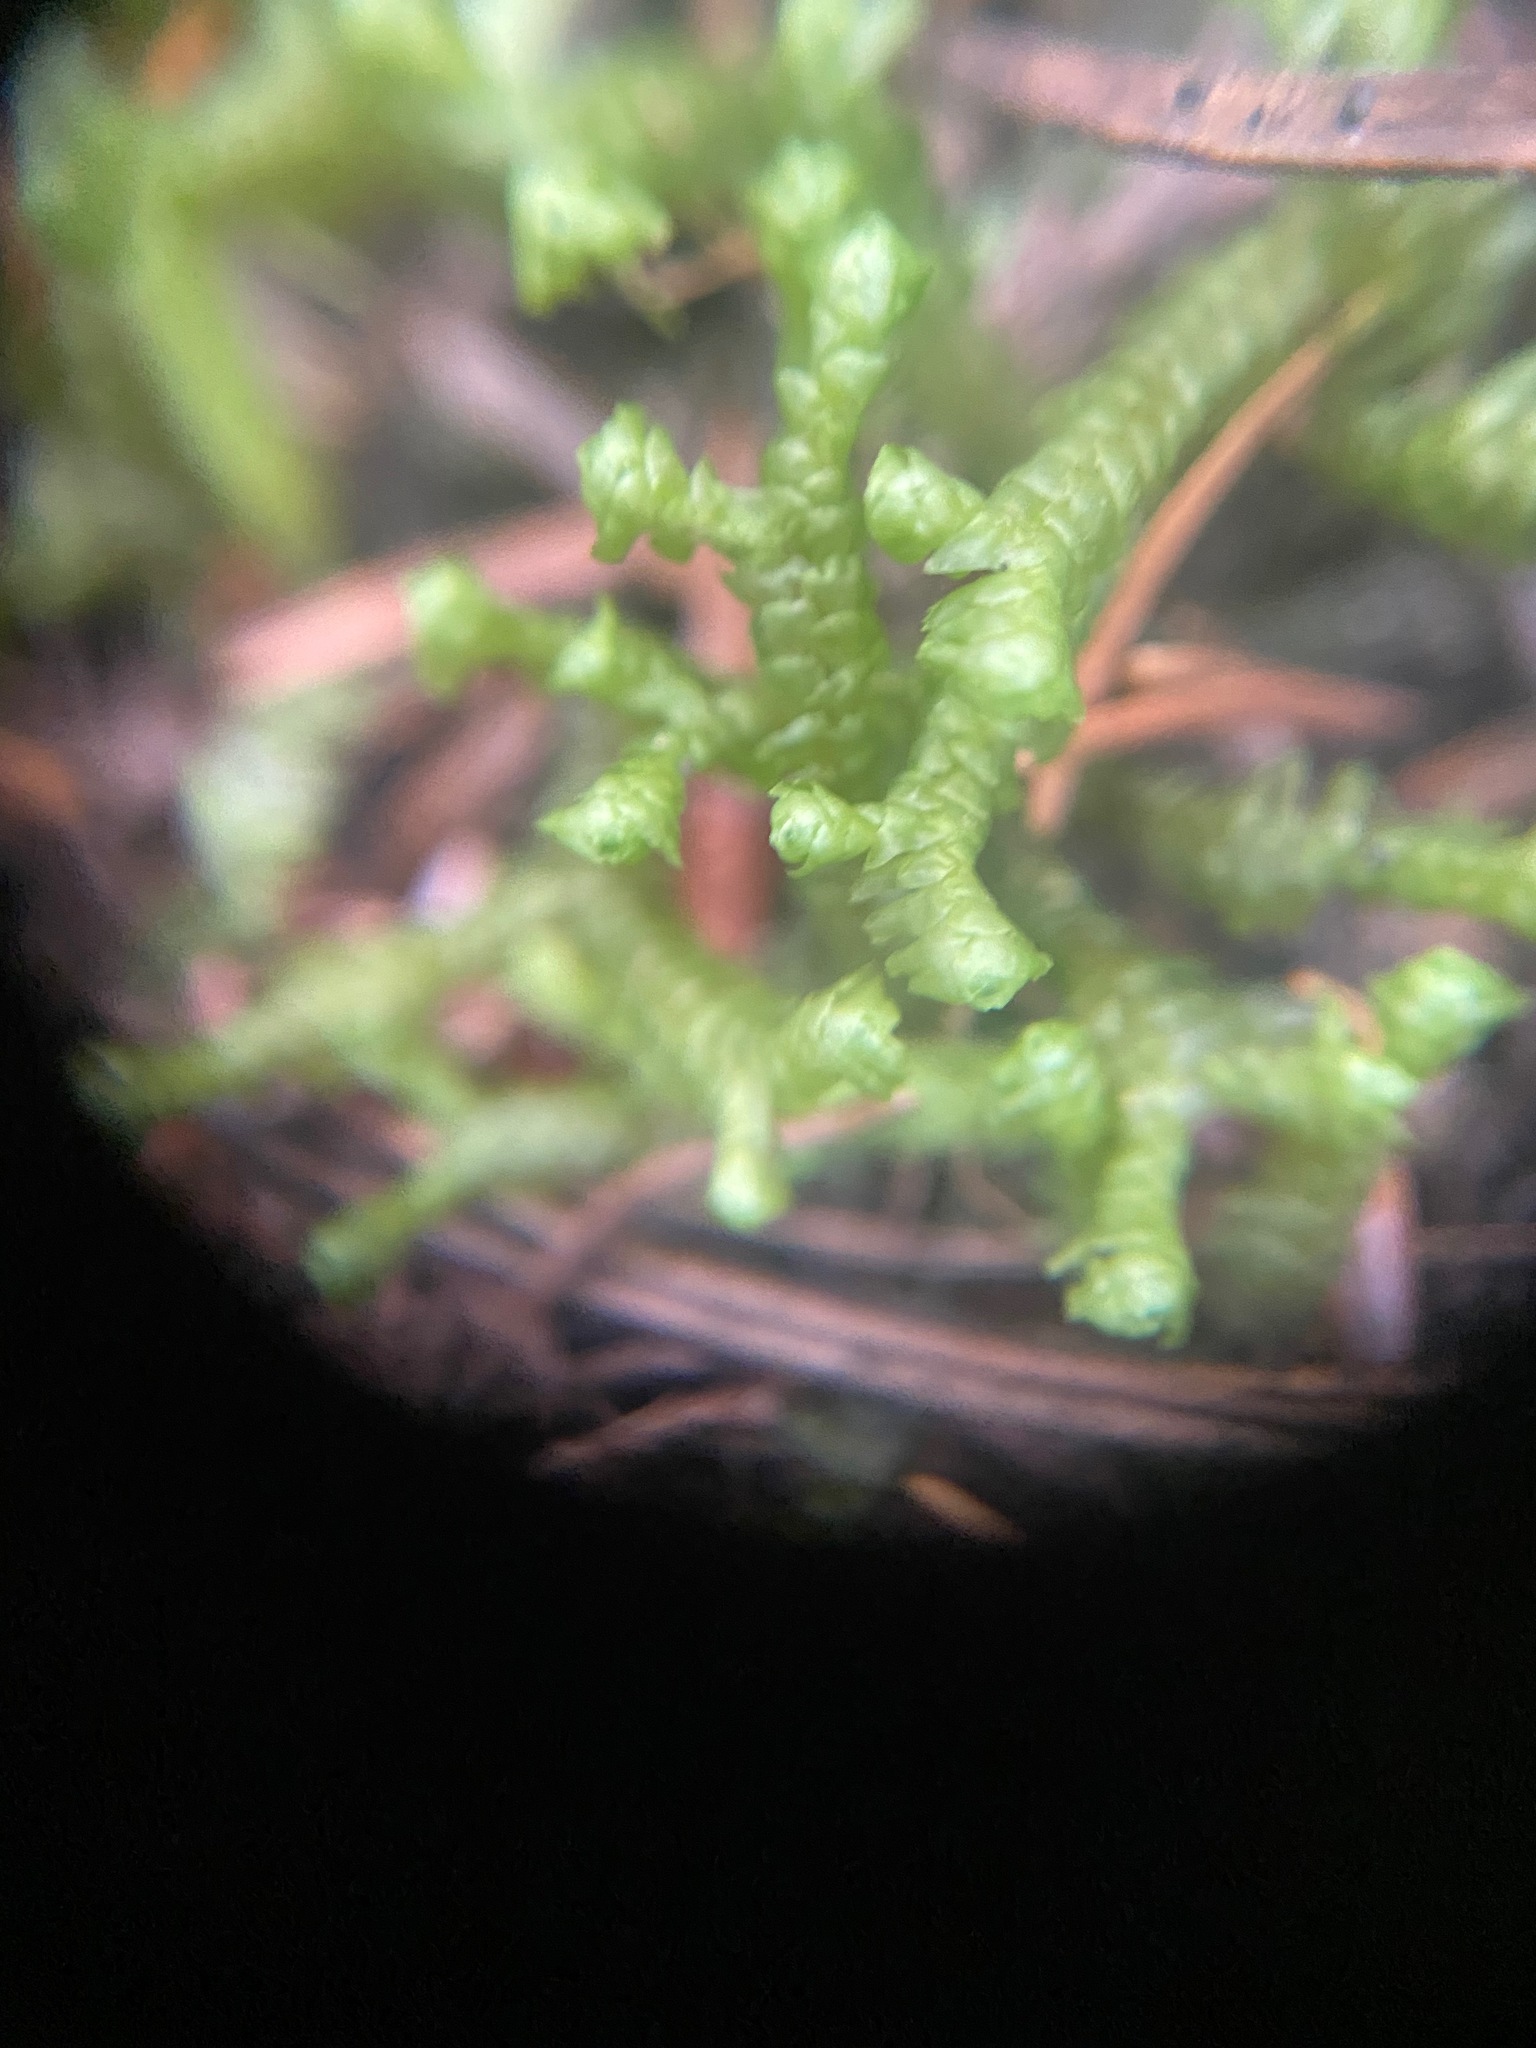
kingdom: Plantae
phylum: Marchantiophyta
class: Jungermanniopsida
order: Jungermanniales
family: Lepidoziaceae
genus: Bazzania
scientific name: Bazzania trilobata
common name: Three-lobed whipwort
